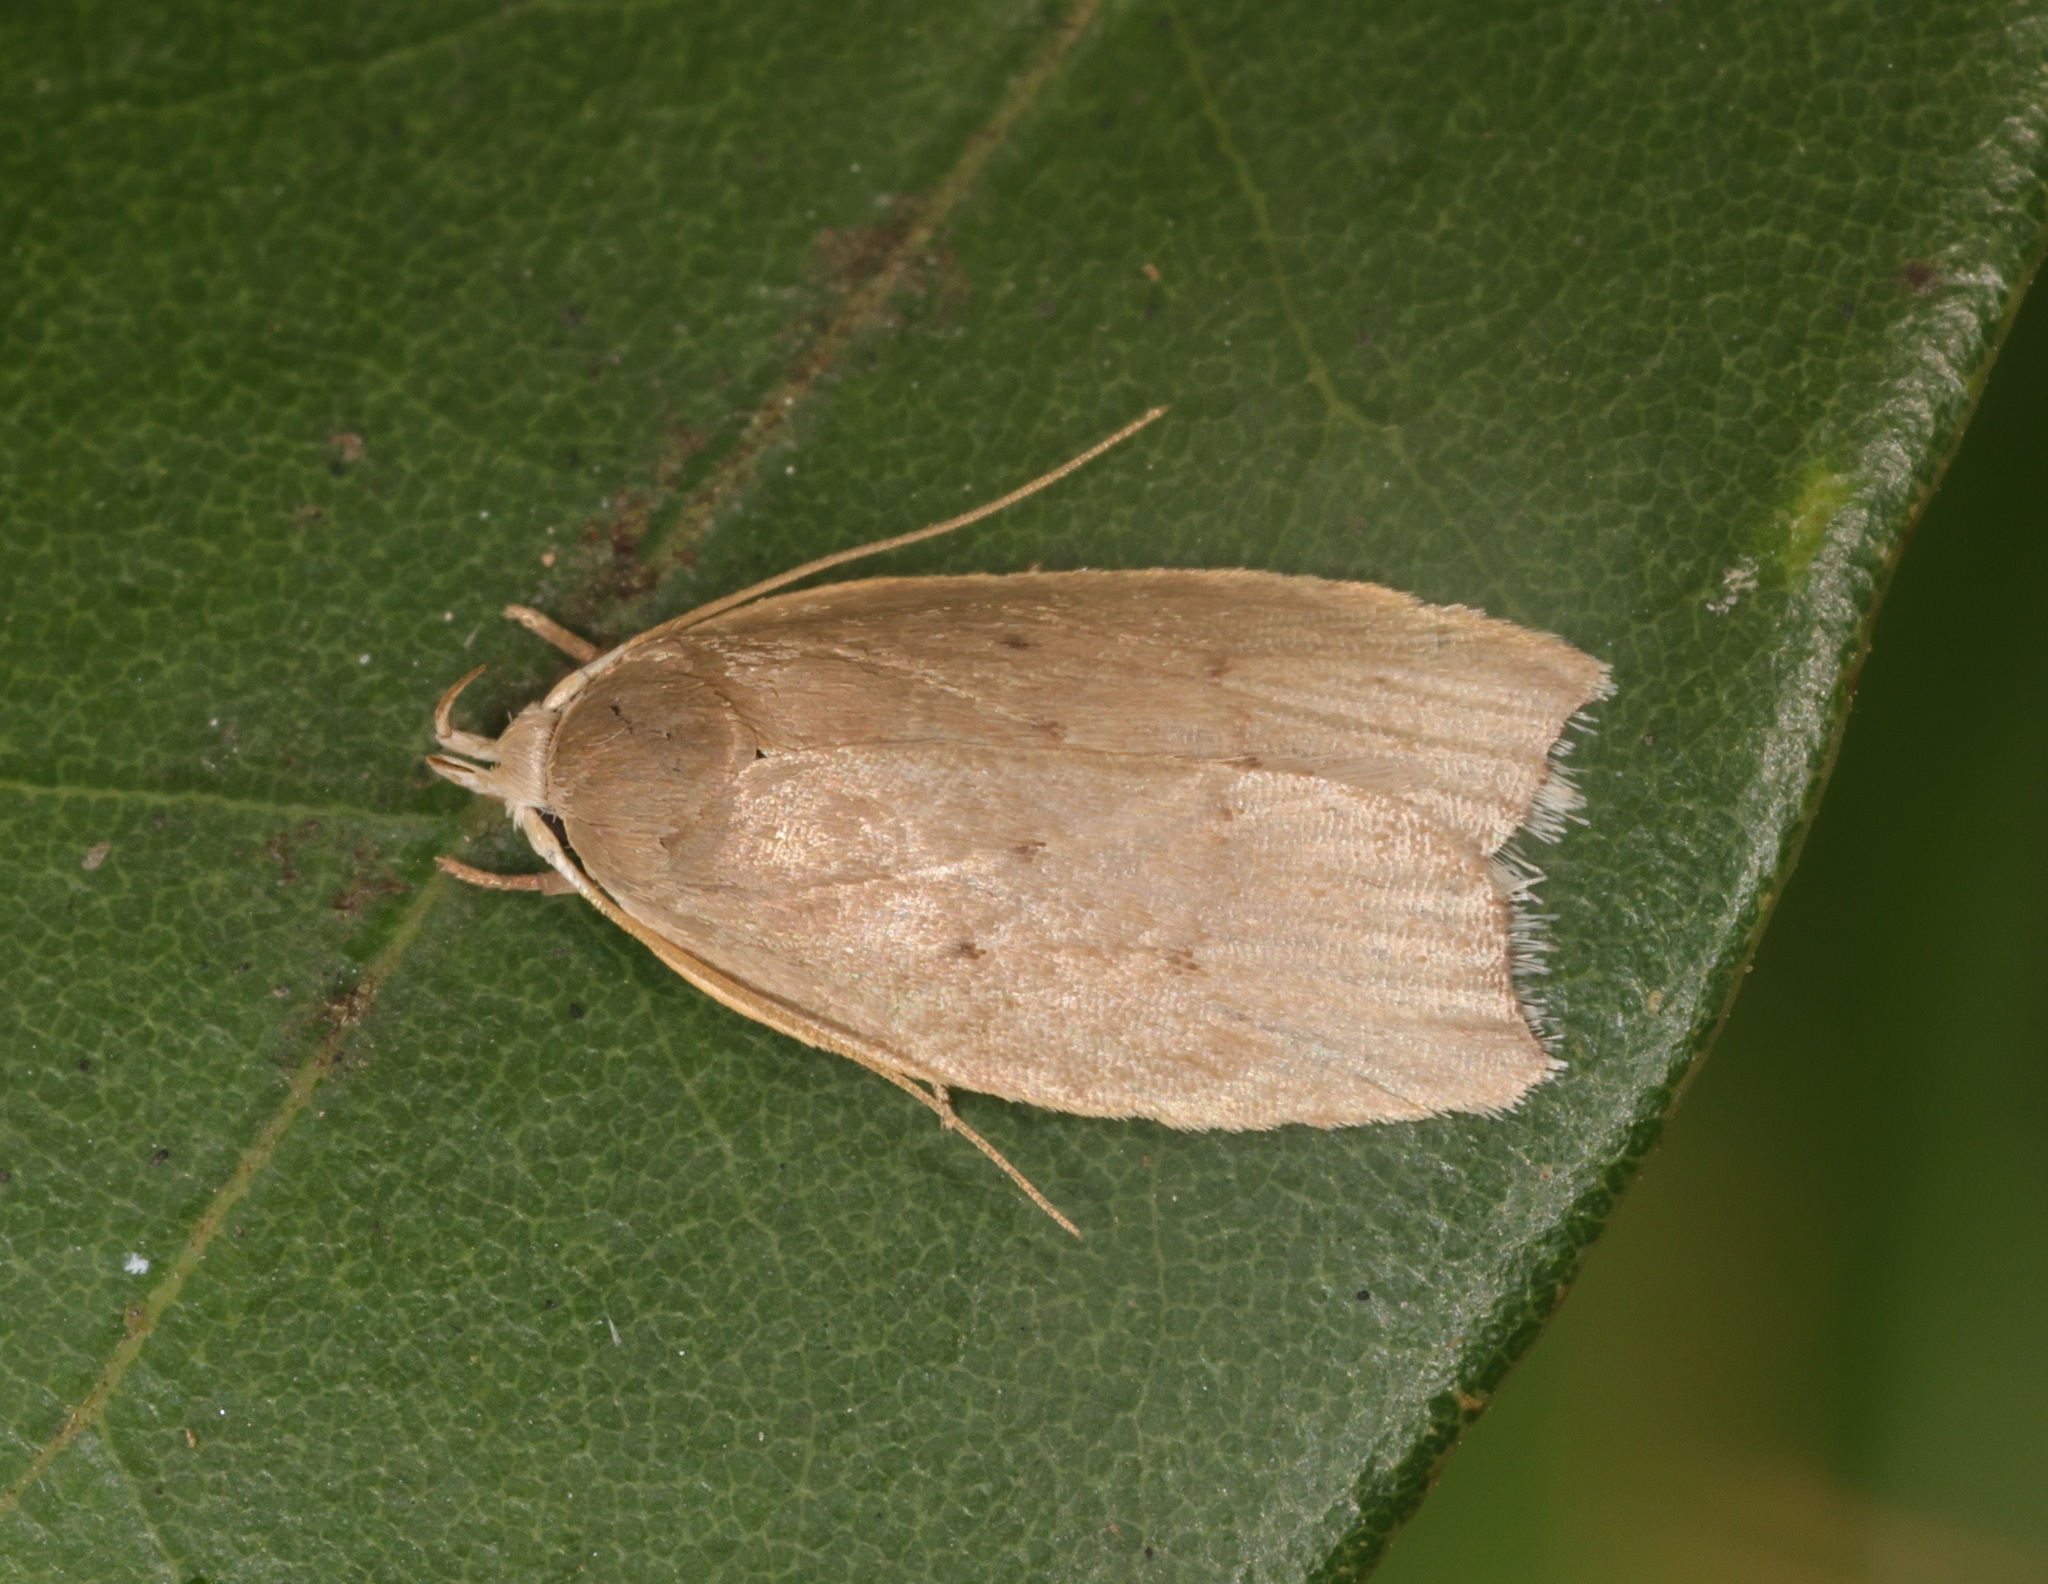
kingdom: Animalia
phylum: Arthropoda
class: Insecta
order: Lepidoptera
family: Peleopodidae
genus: Scythropiodes
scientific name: Scythropiodes
